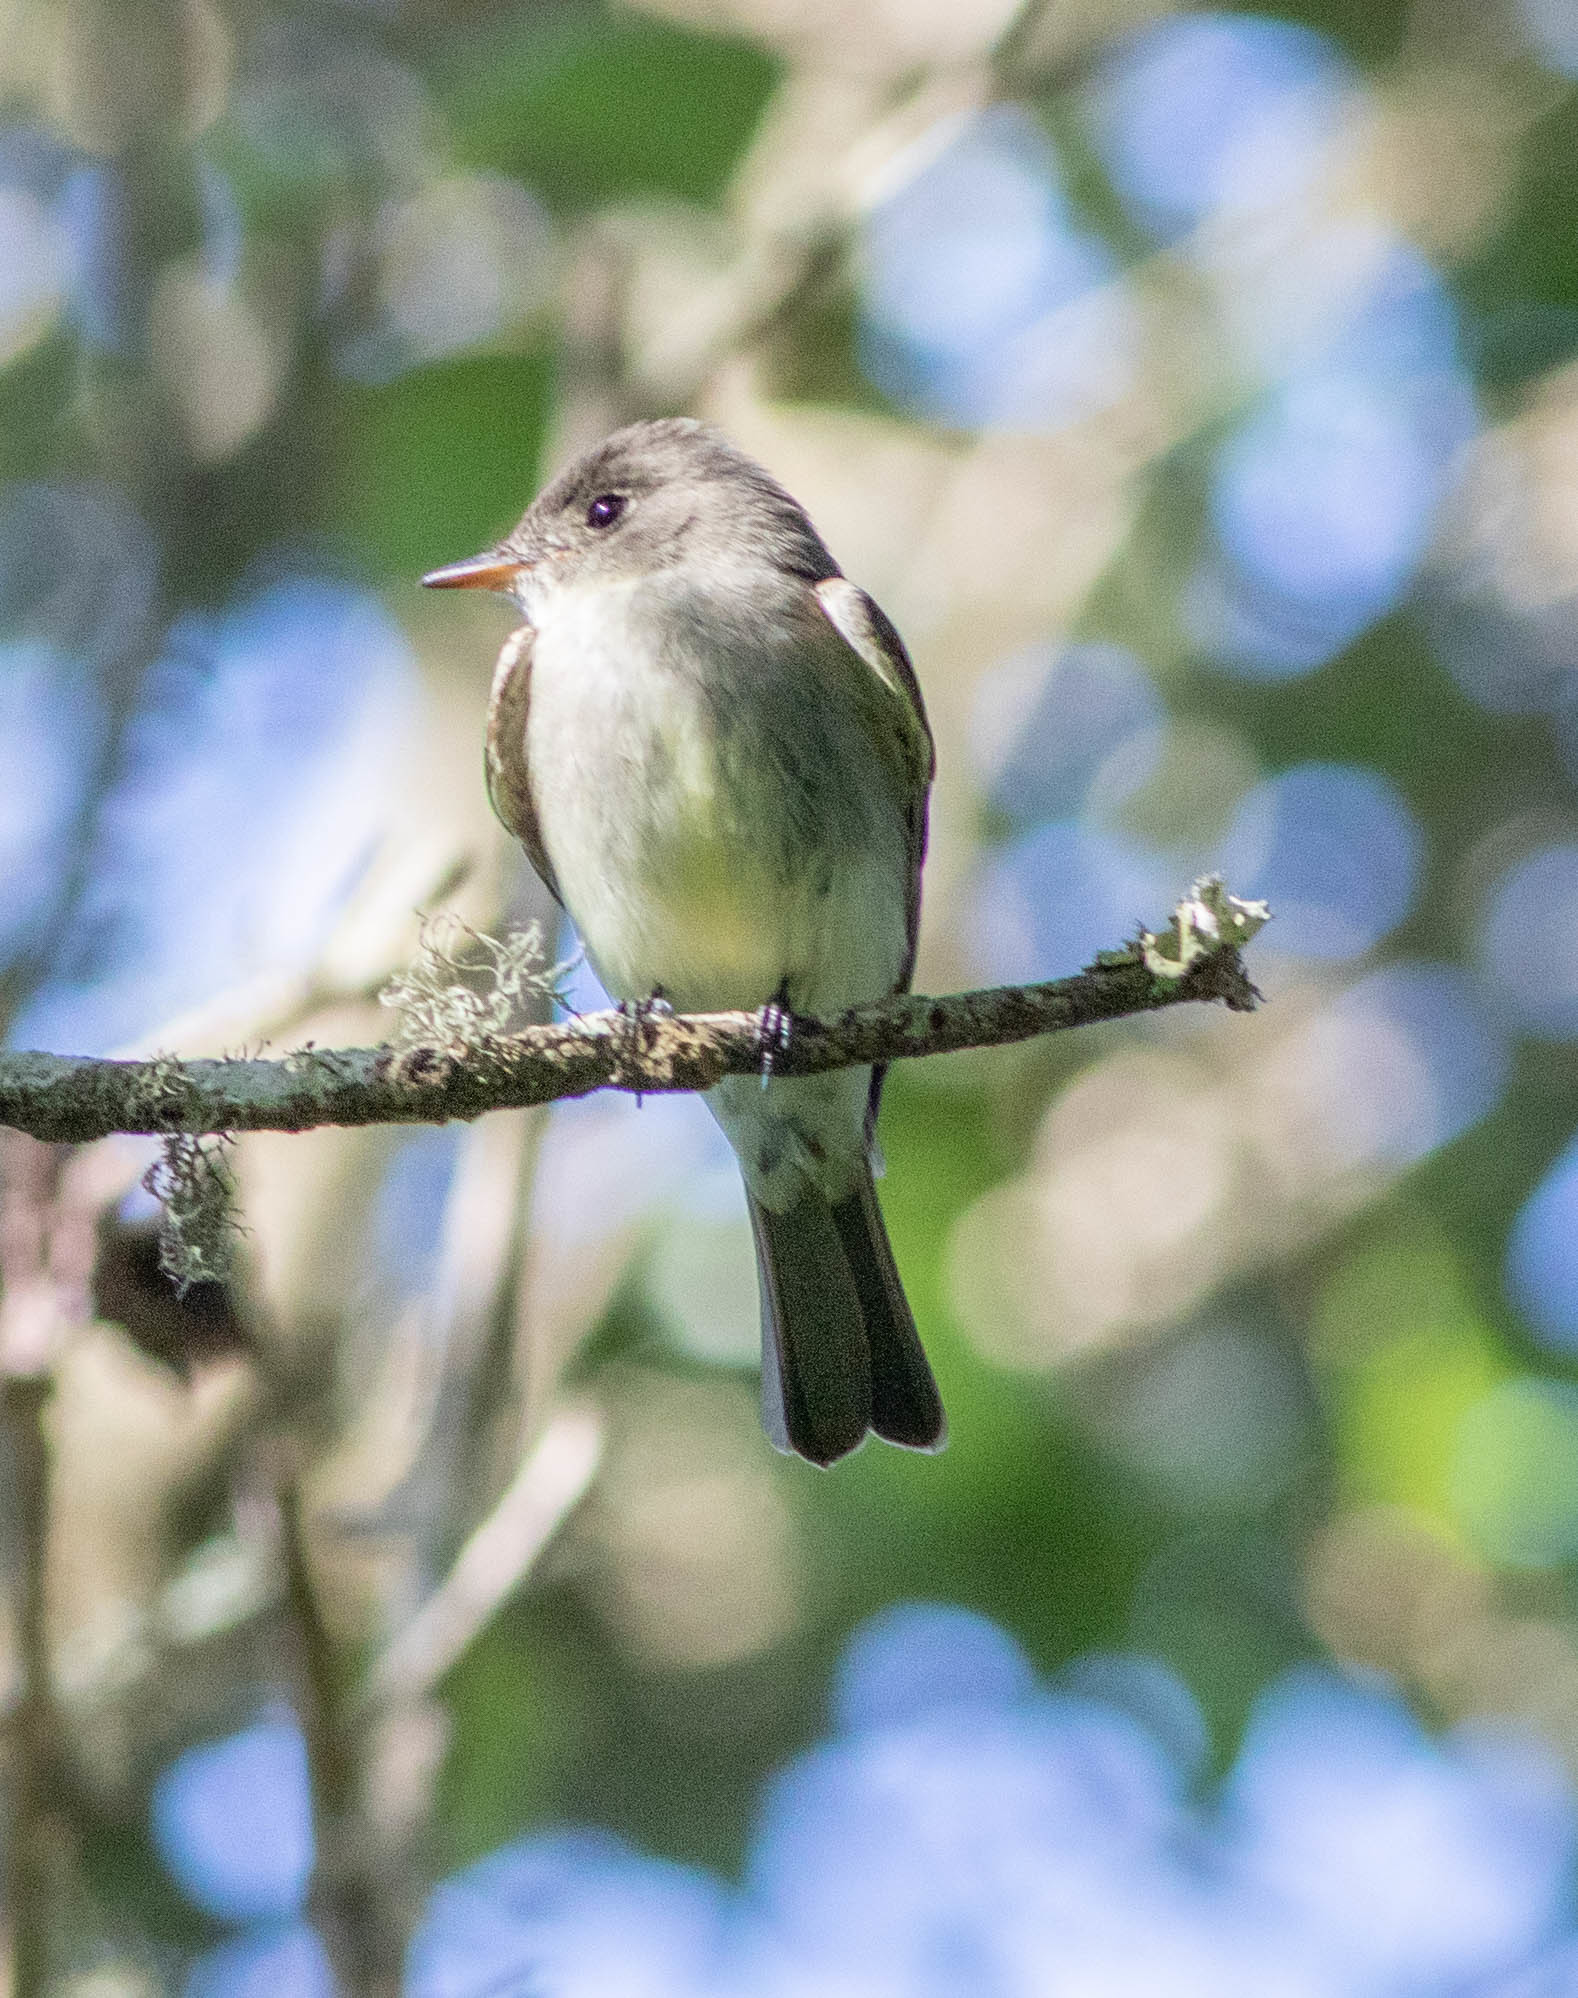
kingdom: Animalia
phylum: Chordata
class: Aves
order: Passeriformes
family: Tyrannidae
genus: Contopus
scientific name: Contopus virens
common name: Eastern wood-pewee
